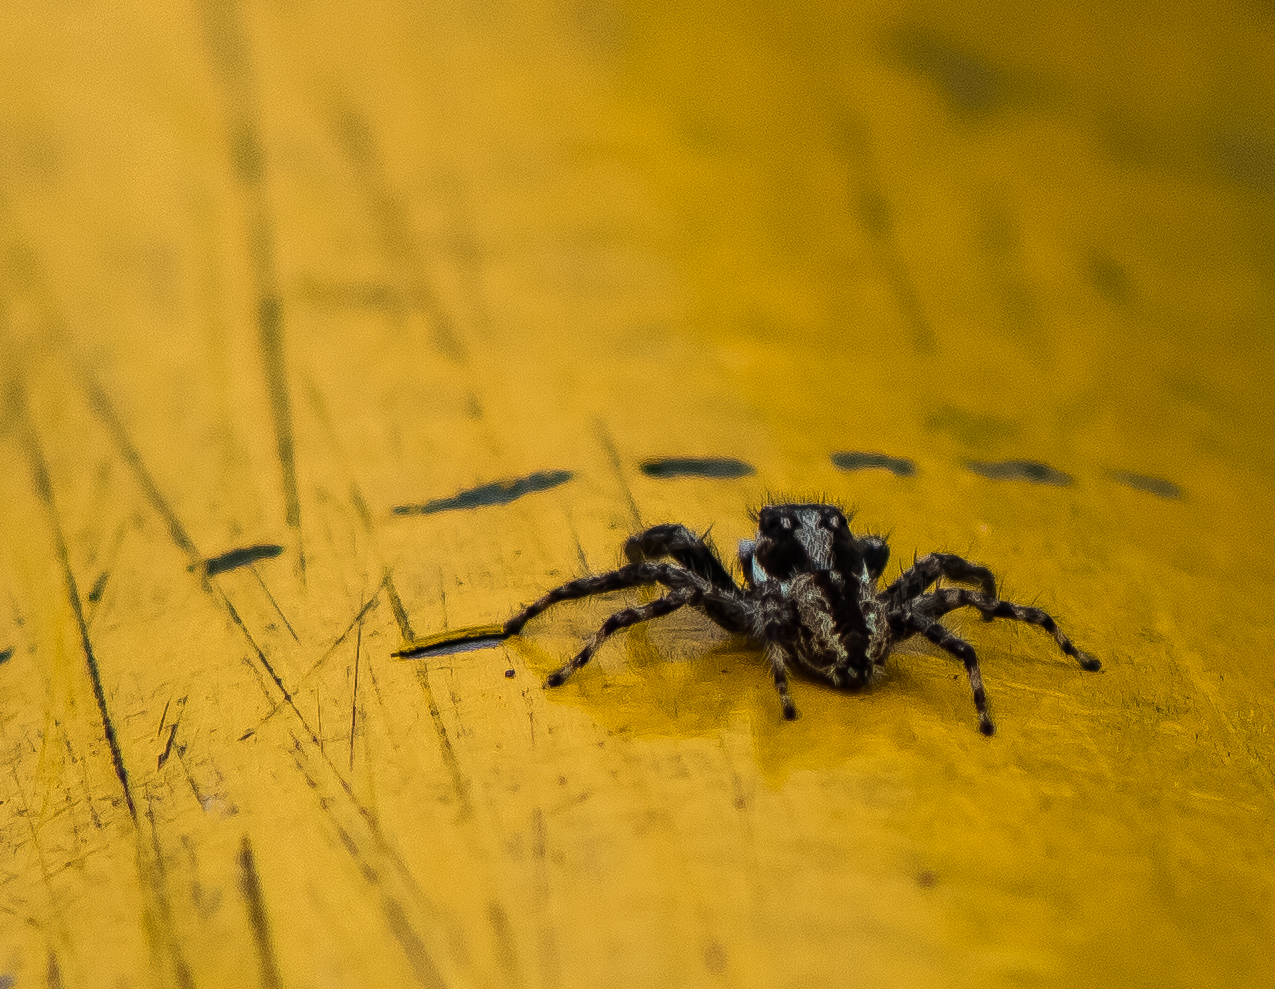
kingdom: Animalia
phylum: Arthropoda
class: Arachnida
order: Araneae
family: Salticidae
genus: Menemerus
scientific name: Menemerus bivittatus
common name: Gray wall jumper
